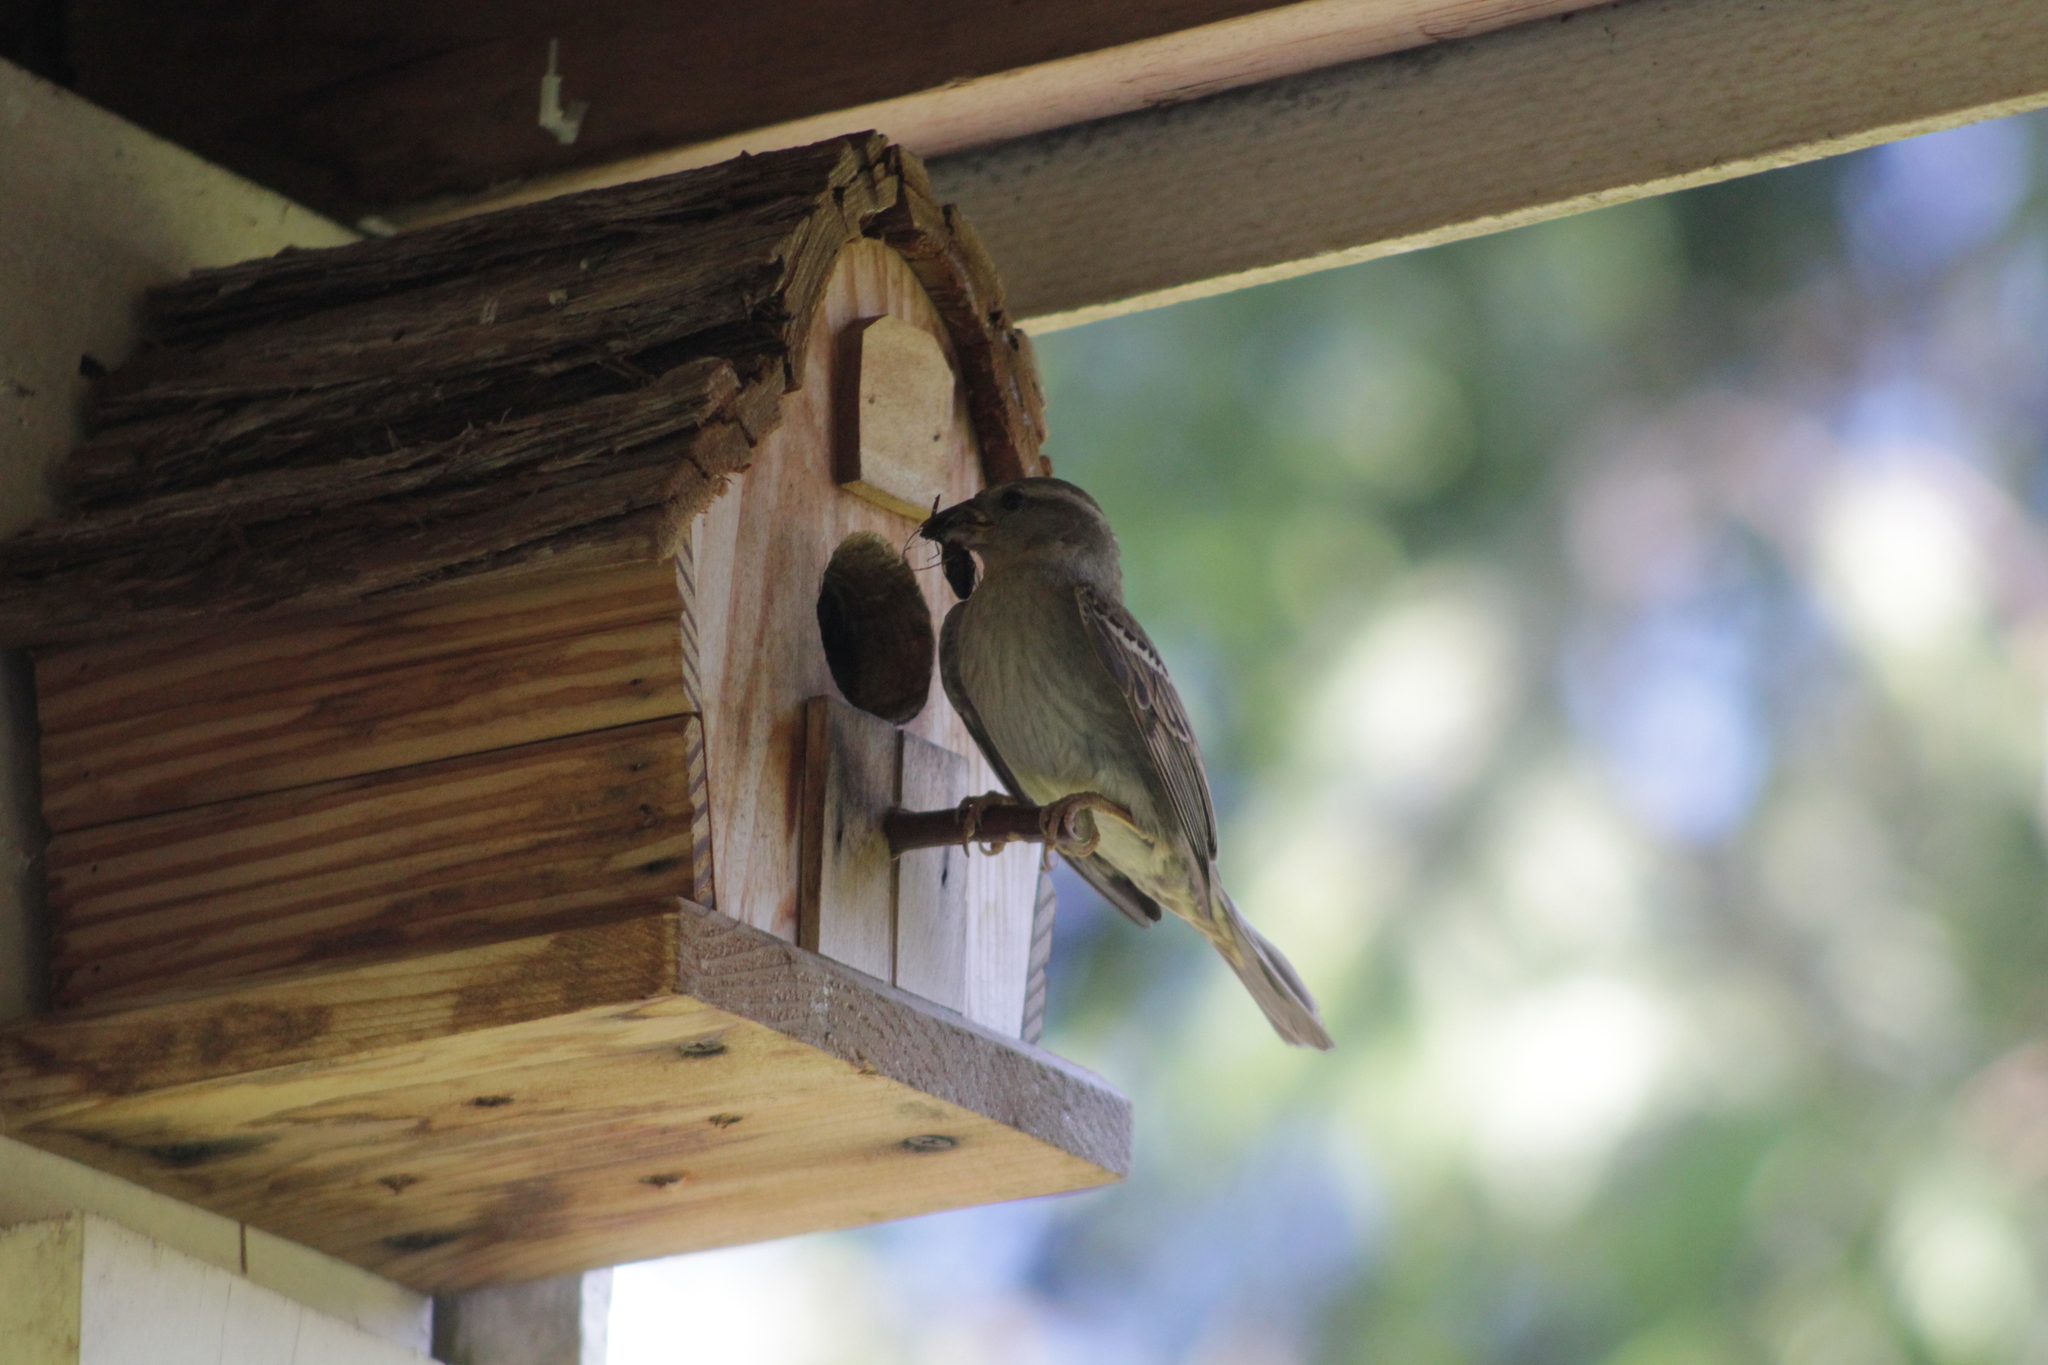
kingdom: Animalia
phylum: Chordata
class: Aves
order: Passeriformes
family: Passeridae
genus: Passer
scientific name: Passer domesticus
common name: House sparrow
